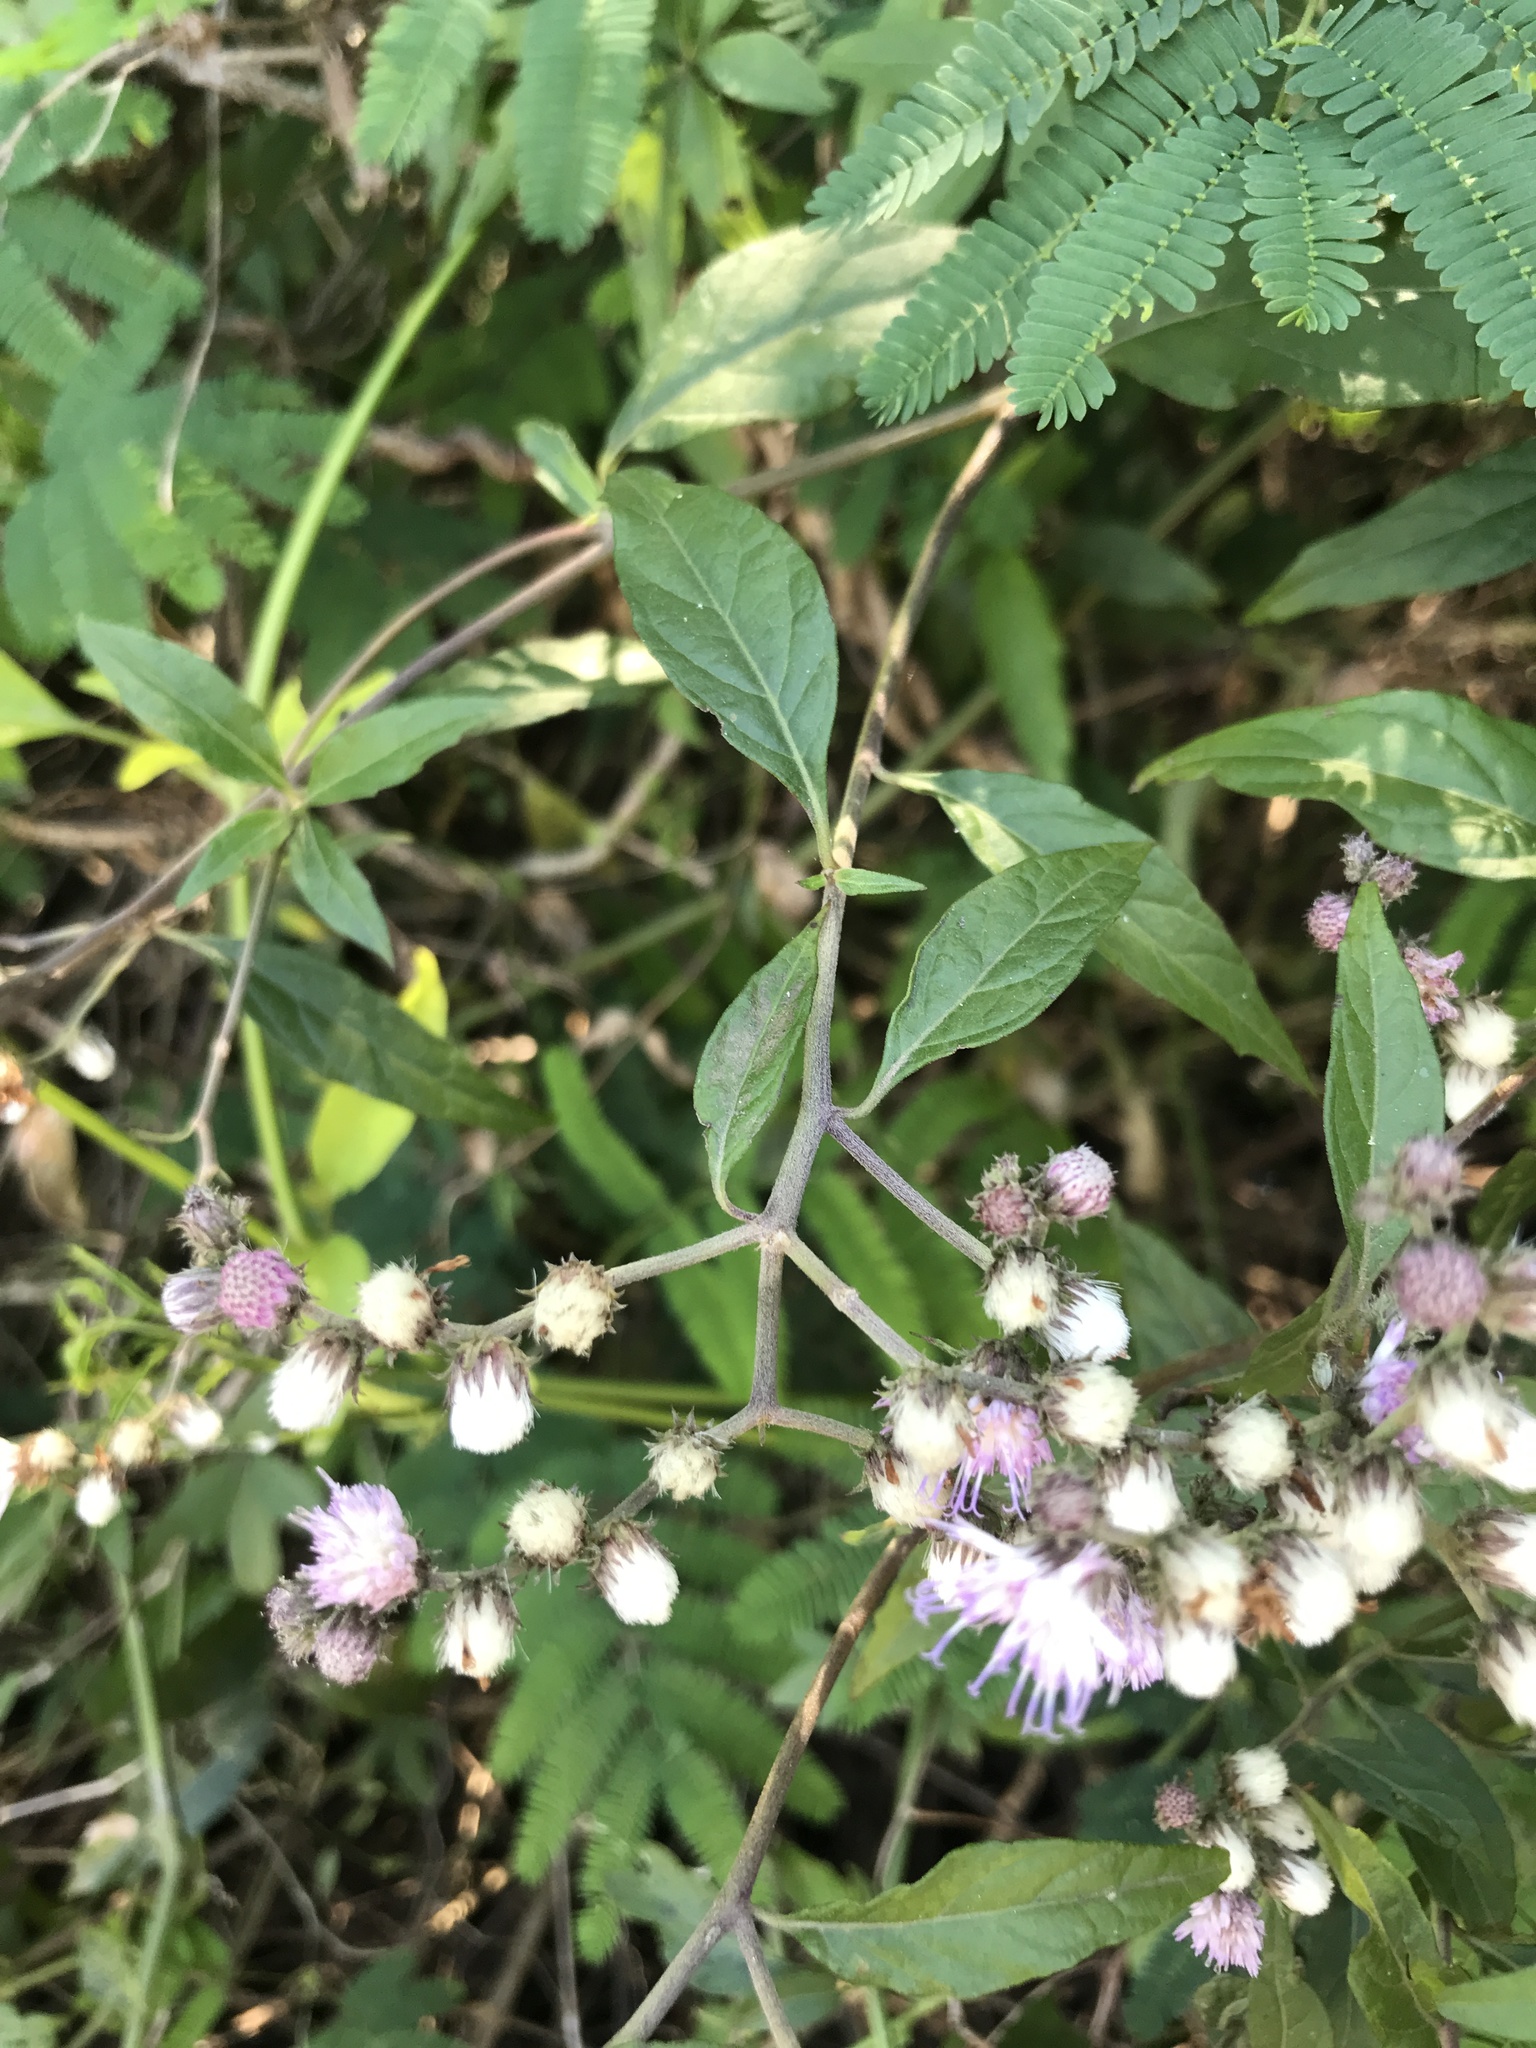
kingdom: Plantae
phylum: Tracheophyta
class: Magnoliopsida
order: Asterales
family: Asteraceae
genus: Cyrtocymura
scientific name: Cyrtocymura scorpioides
